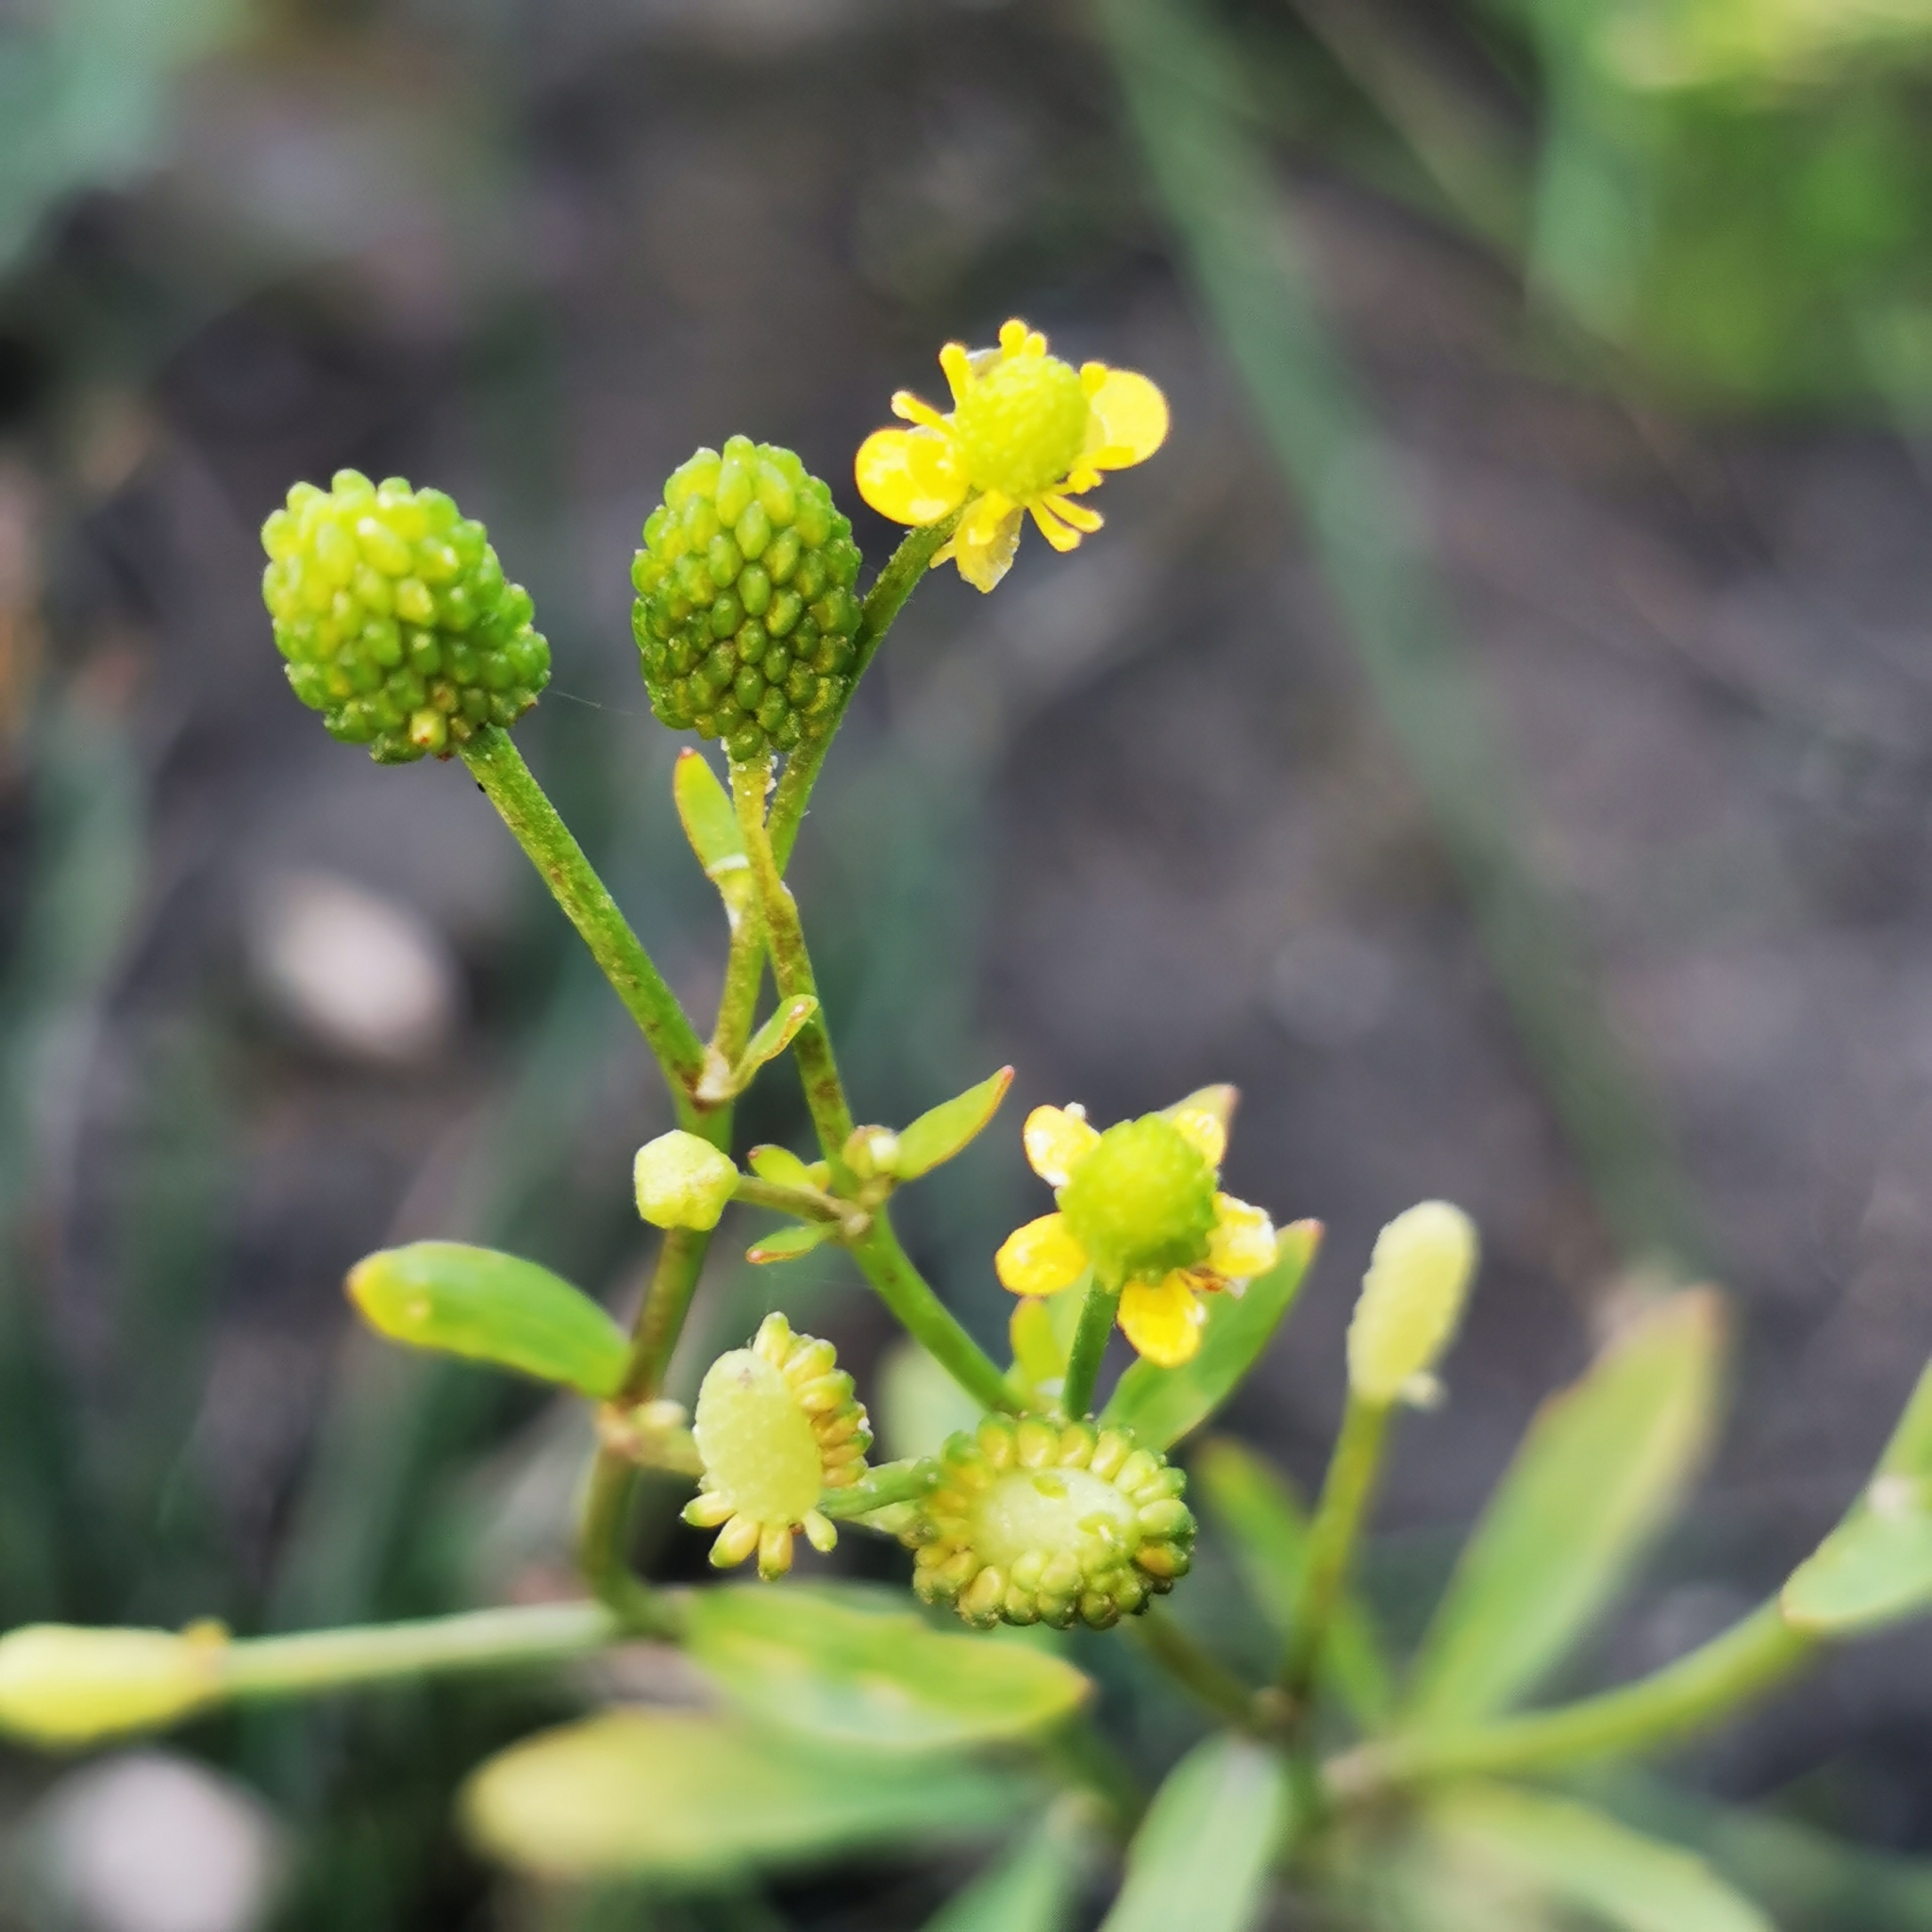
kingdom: Plantae
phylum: Tracheophyta
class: Magnoliopsida
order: Ranunculales
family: Ranunculaceae
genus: Ranunculus
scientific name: Ranunculus sceleratus
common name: Celery-leaved buttercup
